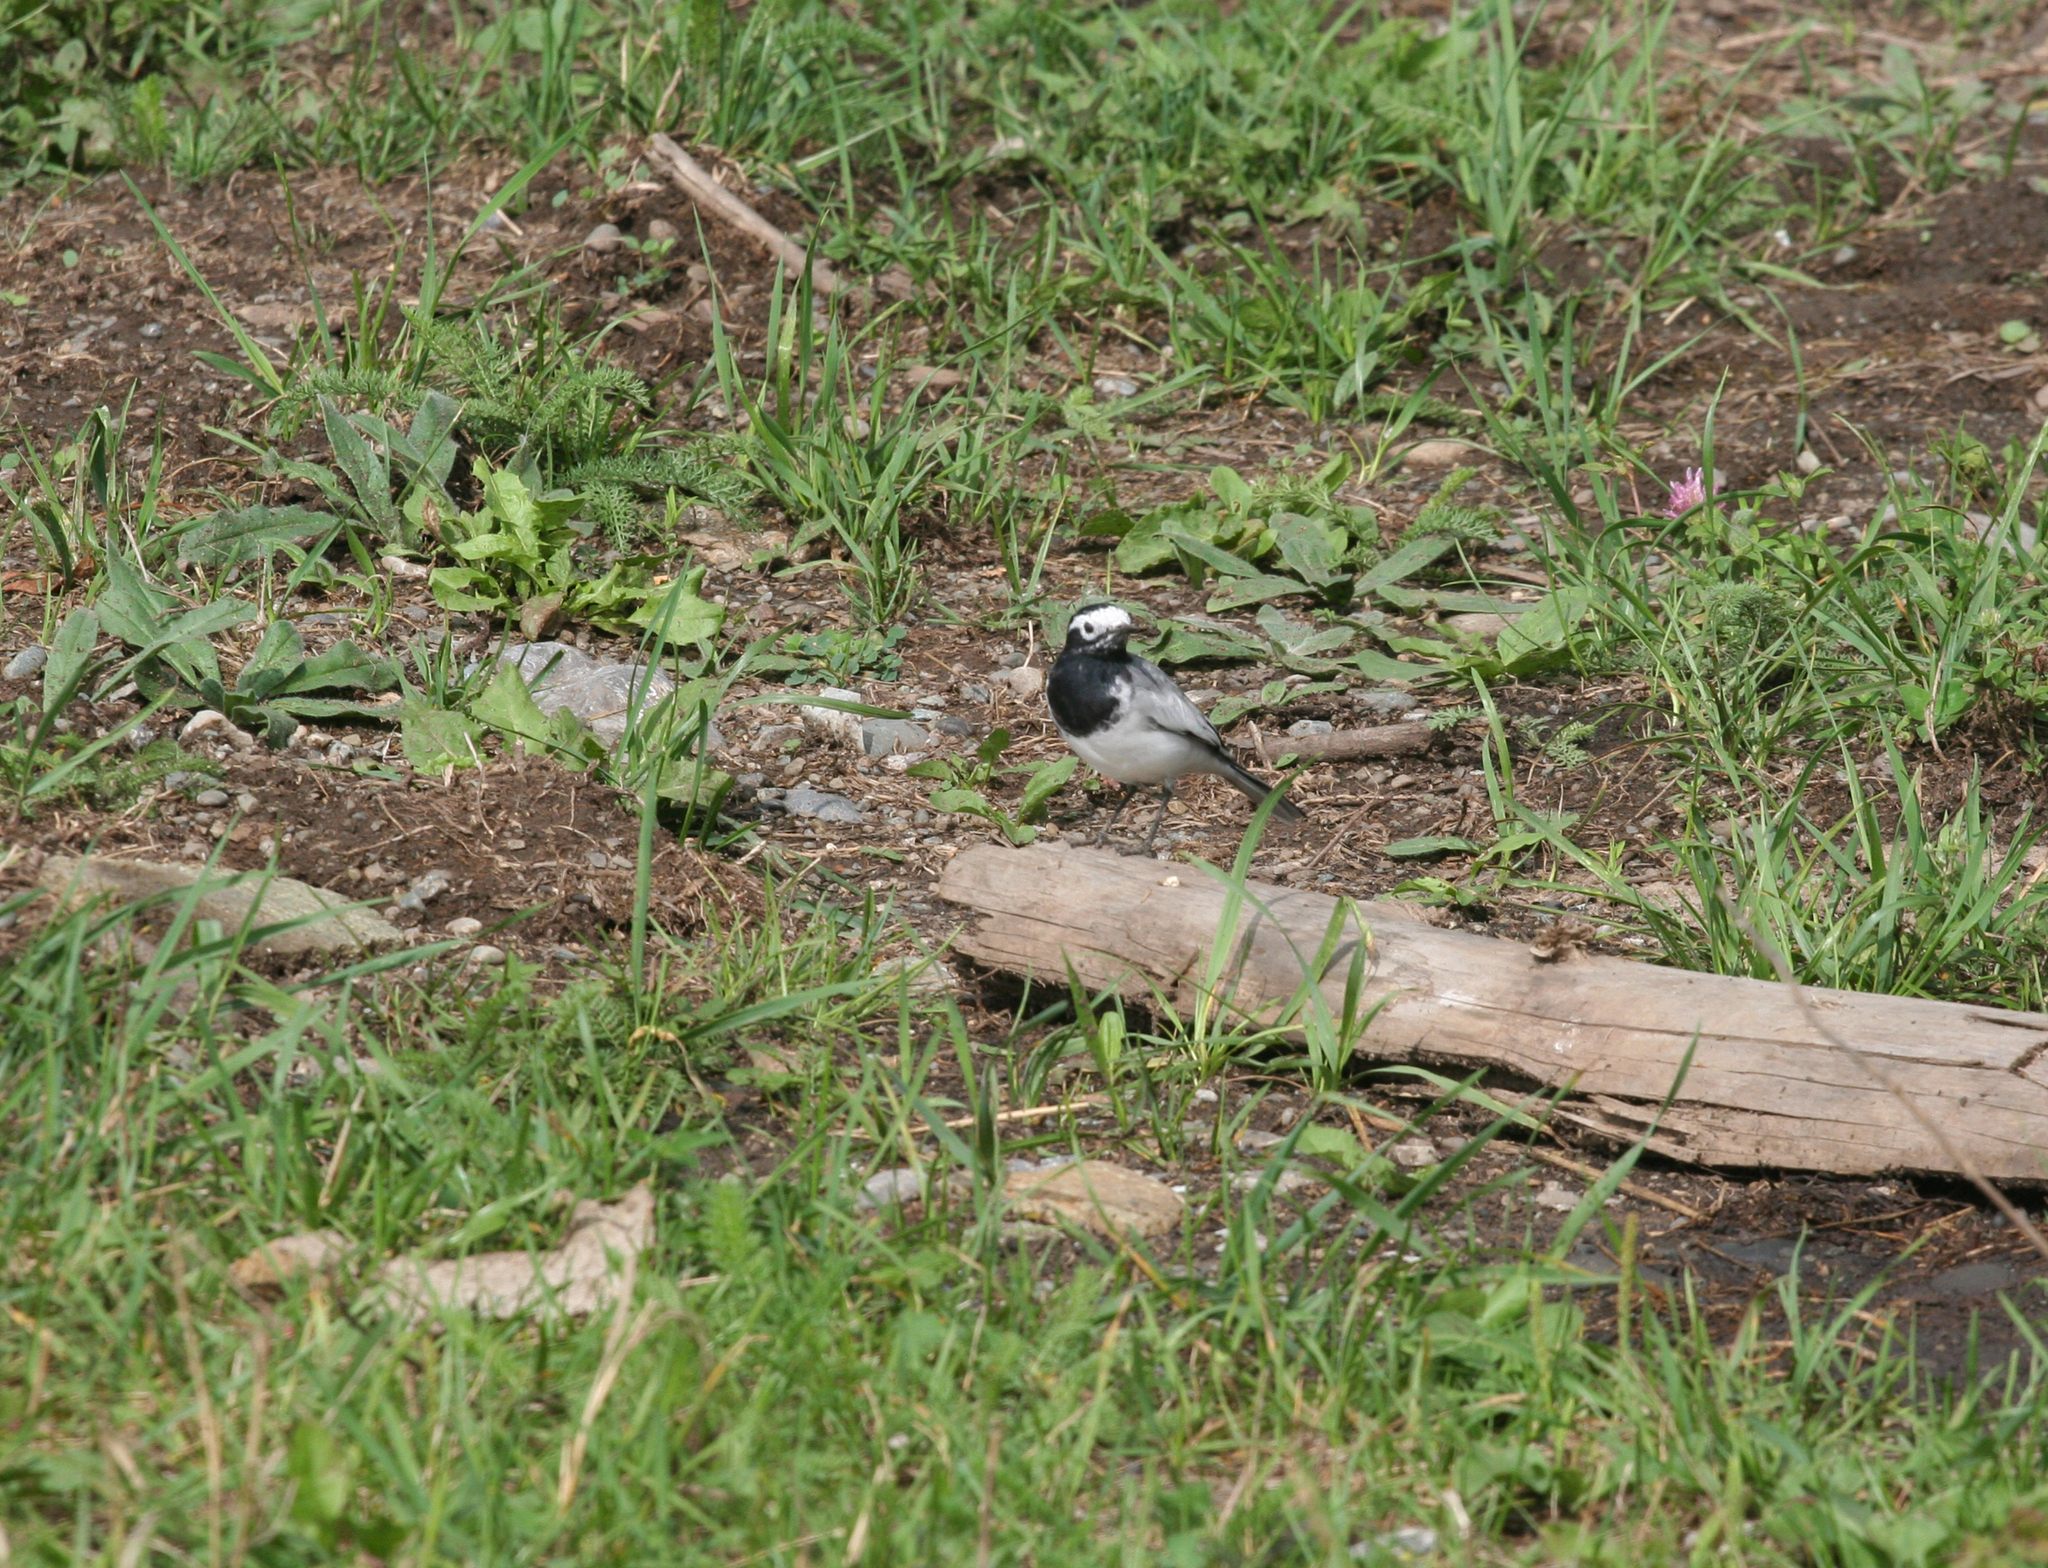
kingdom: Animalia
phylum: Chordata
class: Aves
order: Passeriformes
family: Motacillidae
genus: Motacilla
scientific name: Motacilla alba
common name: White wagtail
